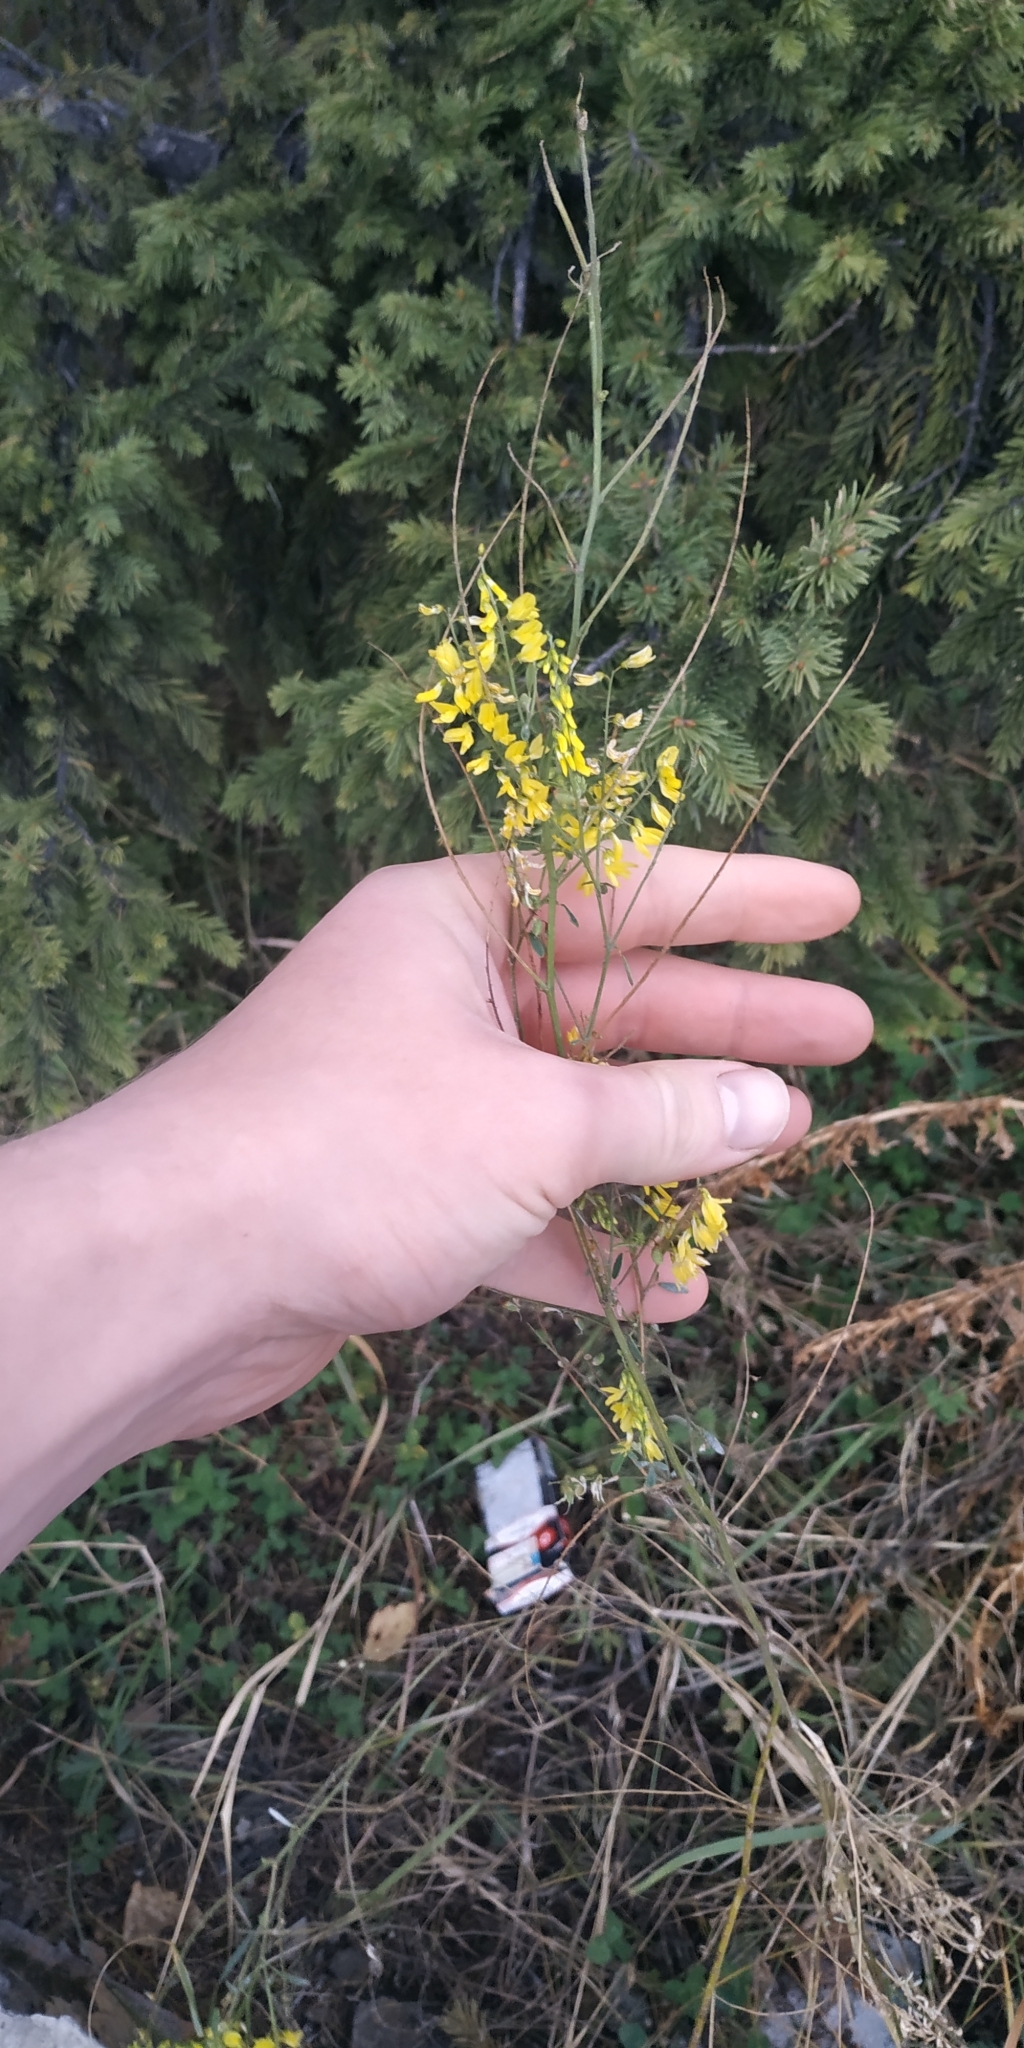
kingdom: Plantae
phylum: Tracheophyta
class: Magnoliopsida
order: Fabales
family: Fabaceae
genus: Melilotus
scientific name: Melilotus officinalis
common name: Sweetclover
